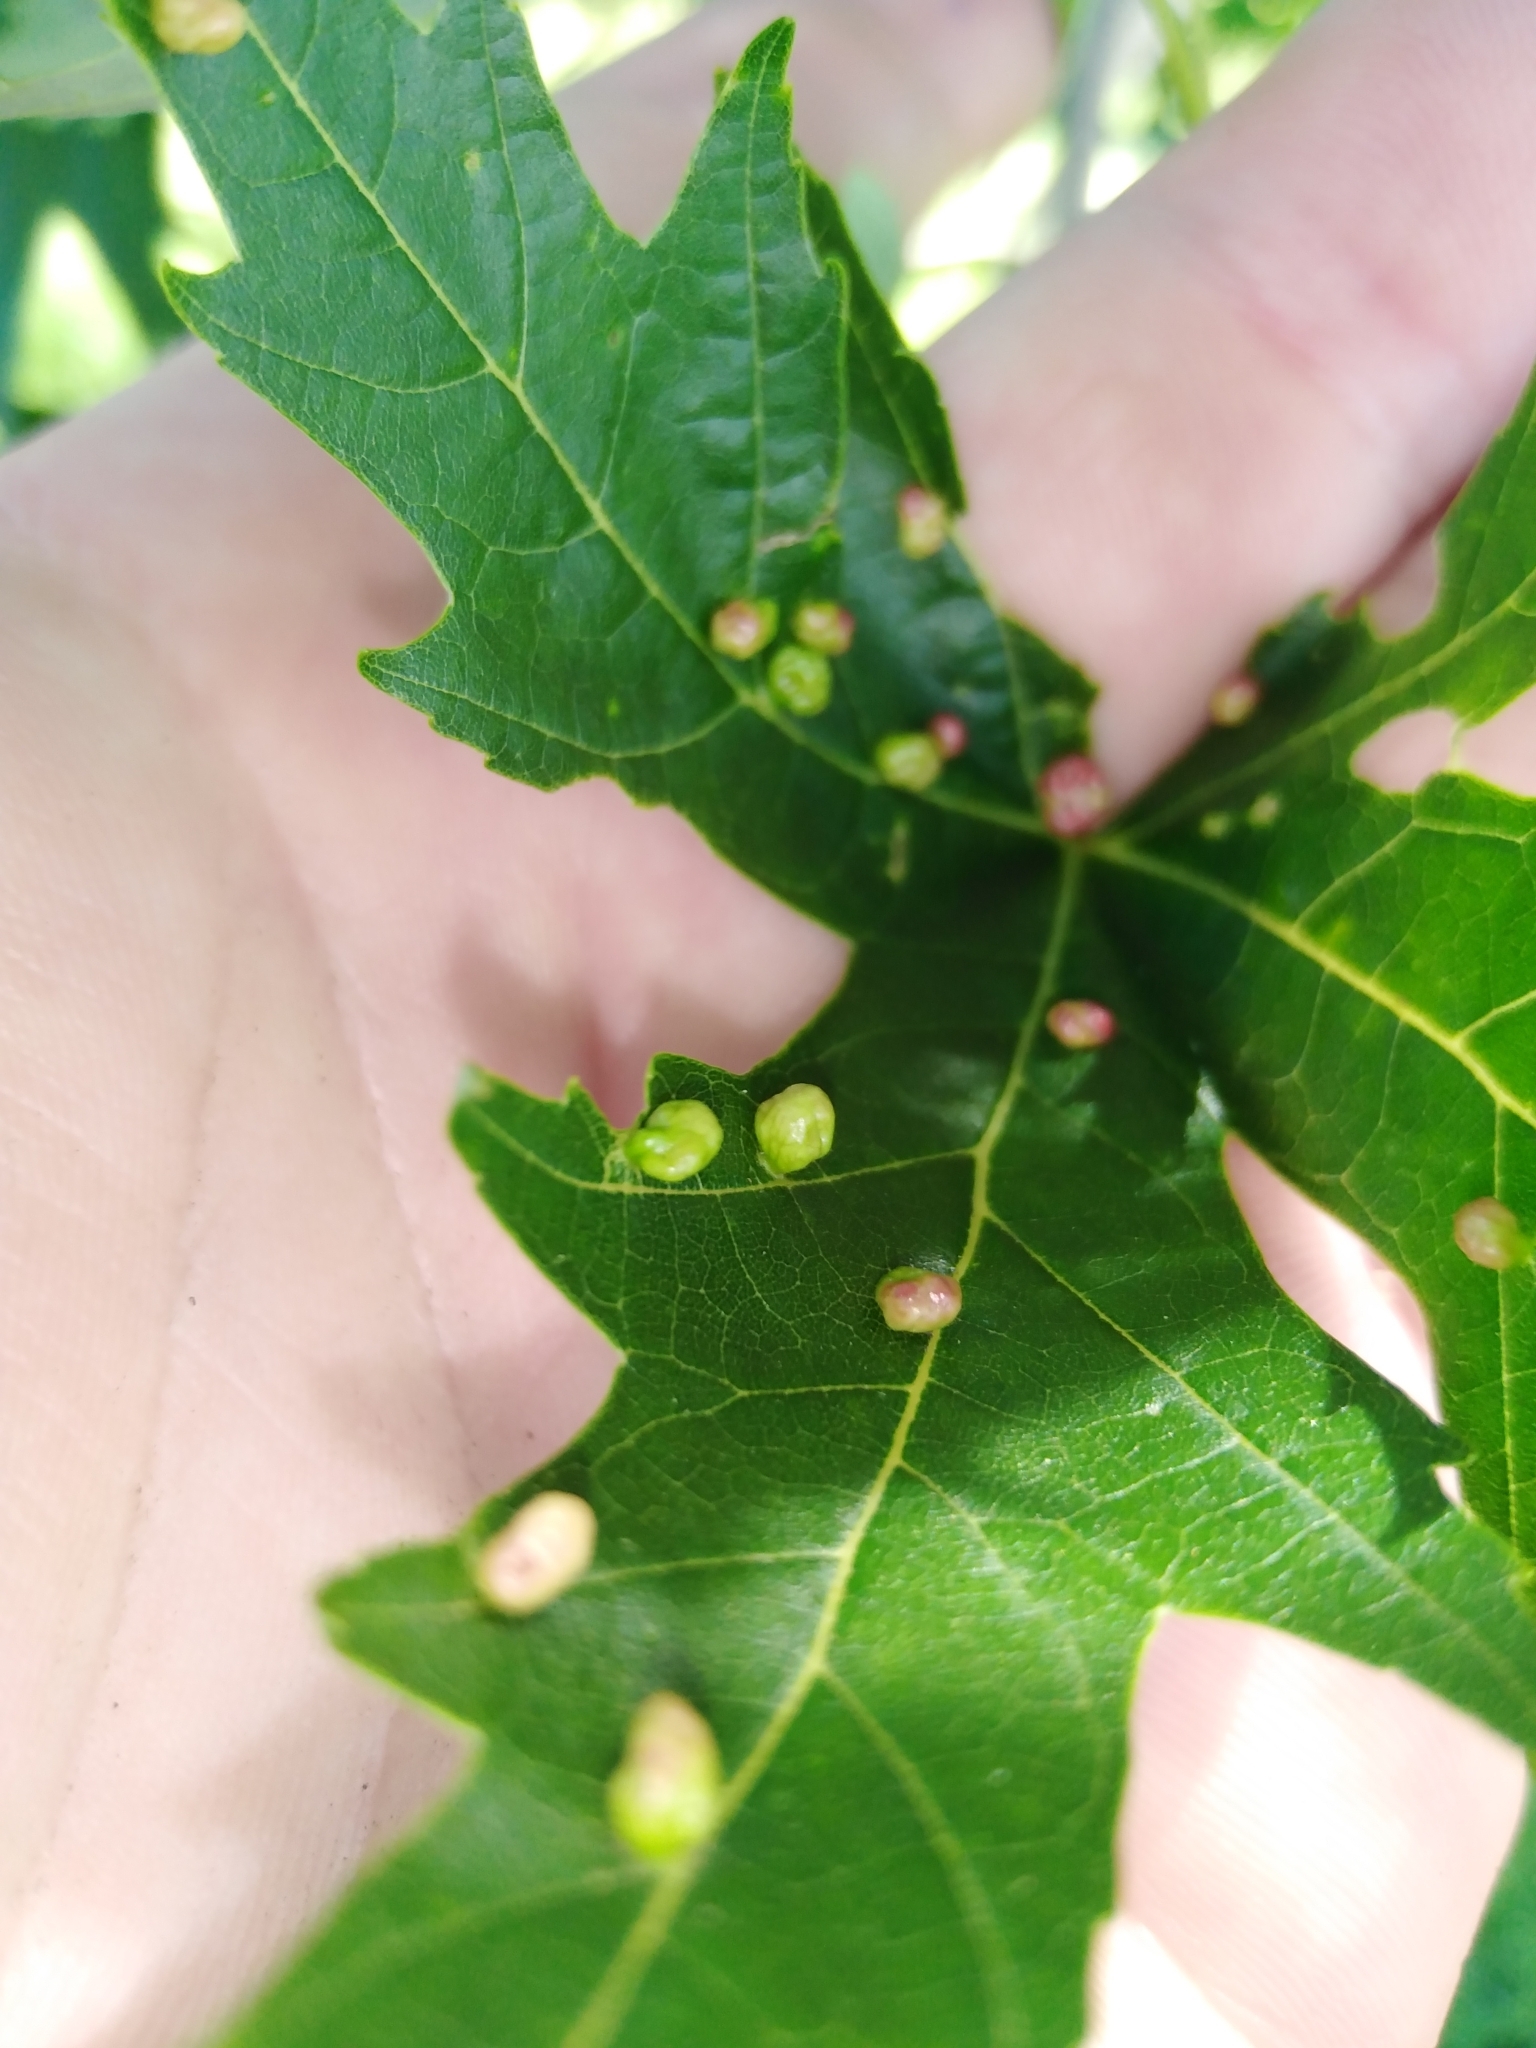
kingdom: Animalia
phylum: Arthropoda
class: Arachnida
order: Trombidiformes
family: Eriophyidae
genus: Vasates
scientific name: Vasates quadripedes
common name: Maple bladder gall mite
